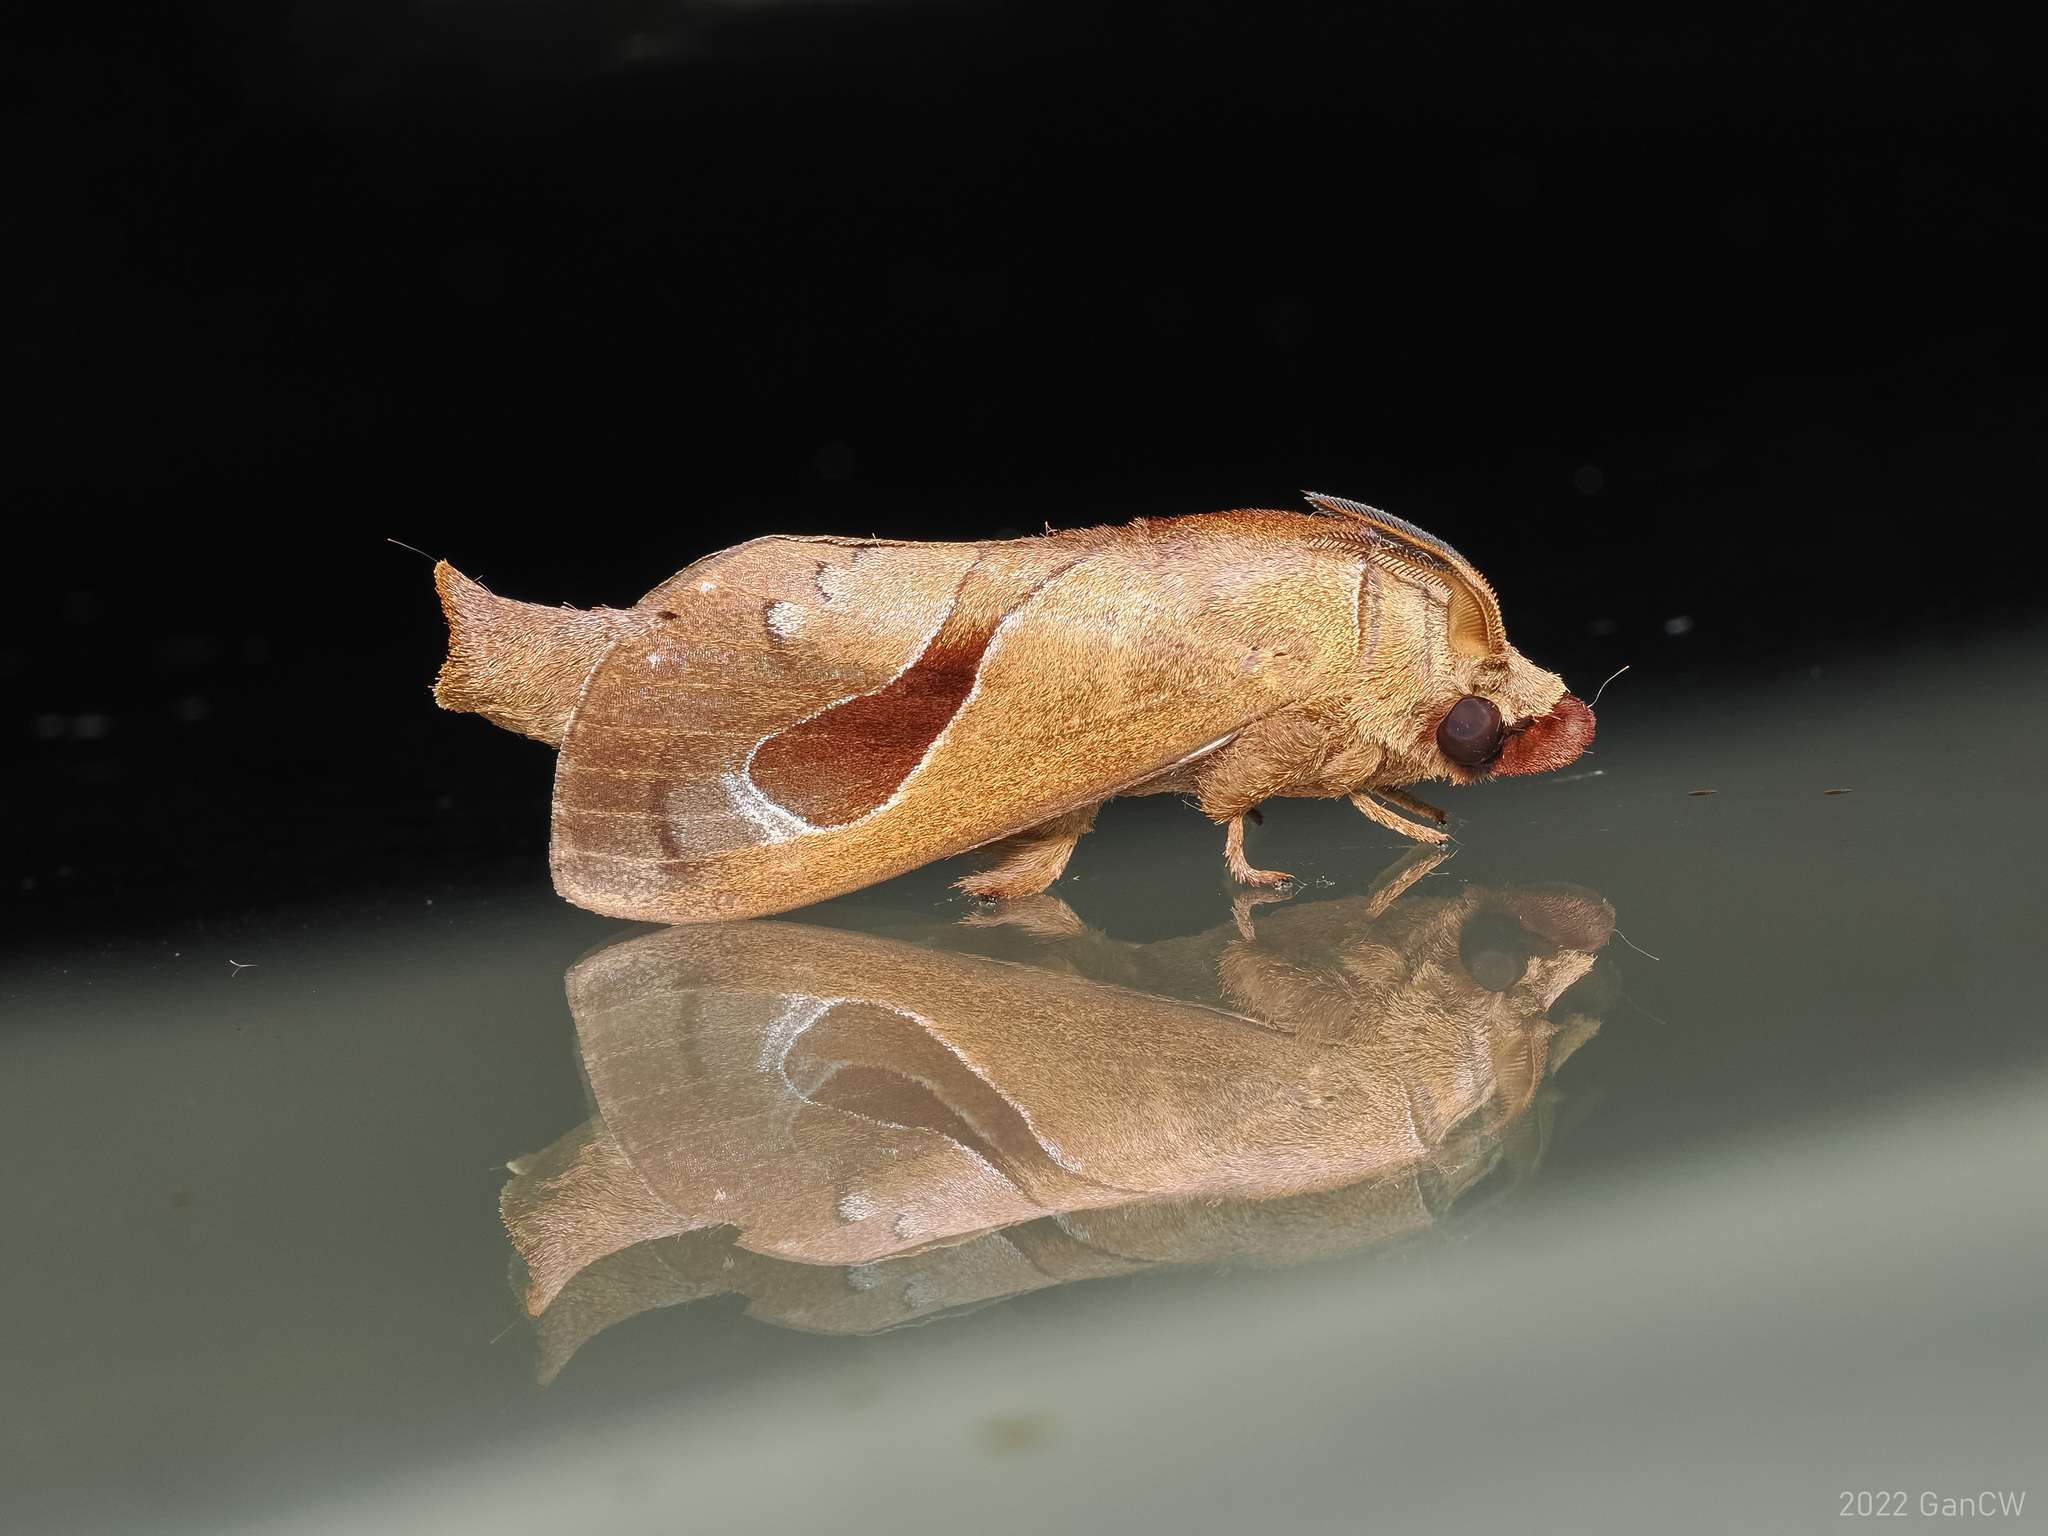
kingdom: Animalia
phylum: Arthropoda
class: Insecta
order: Lepidoptera
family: Lasiocampidae
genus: Paralebeda
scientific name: Paralebeda lucifuga
